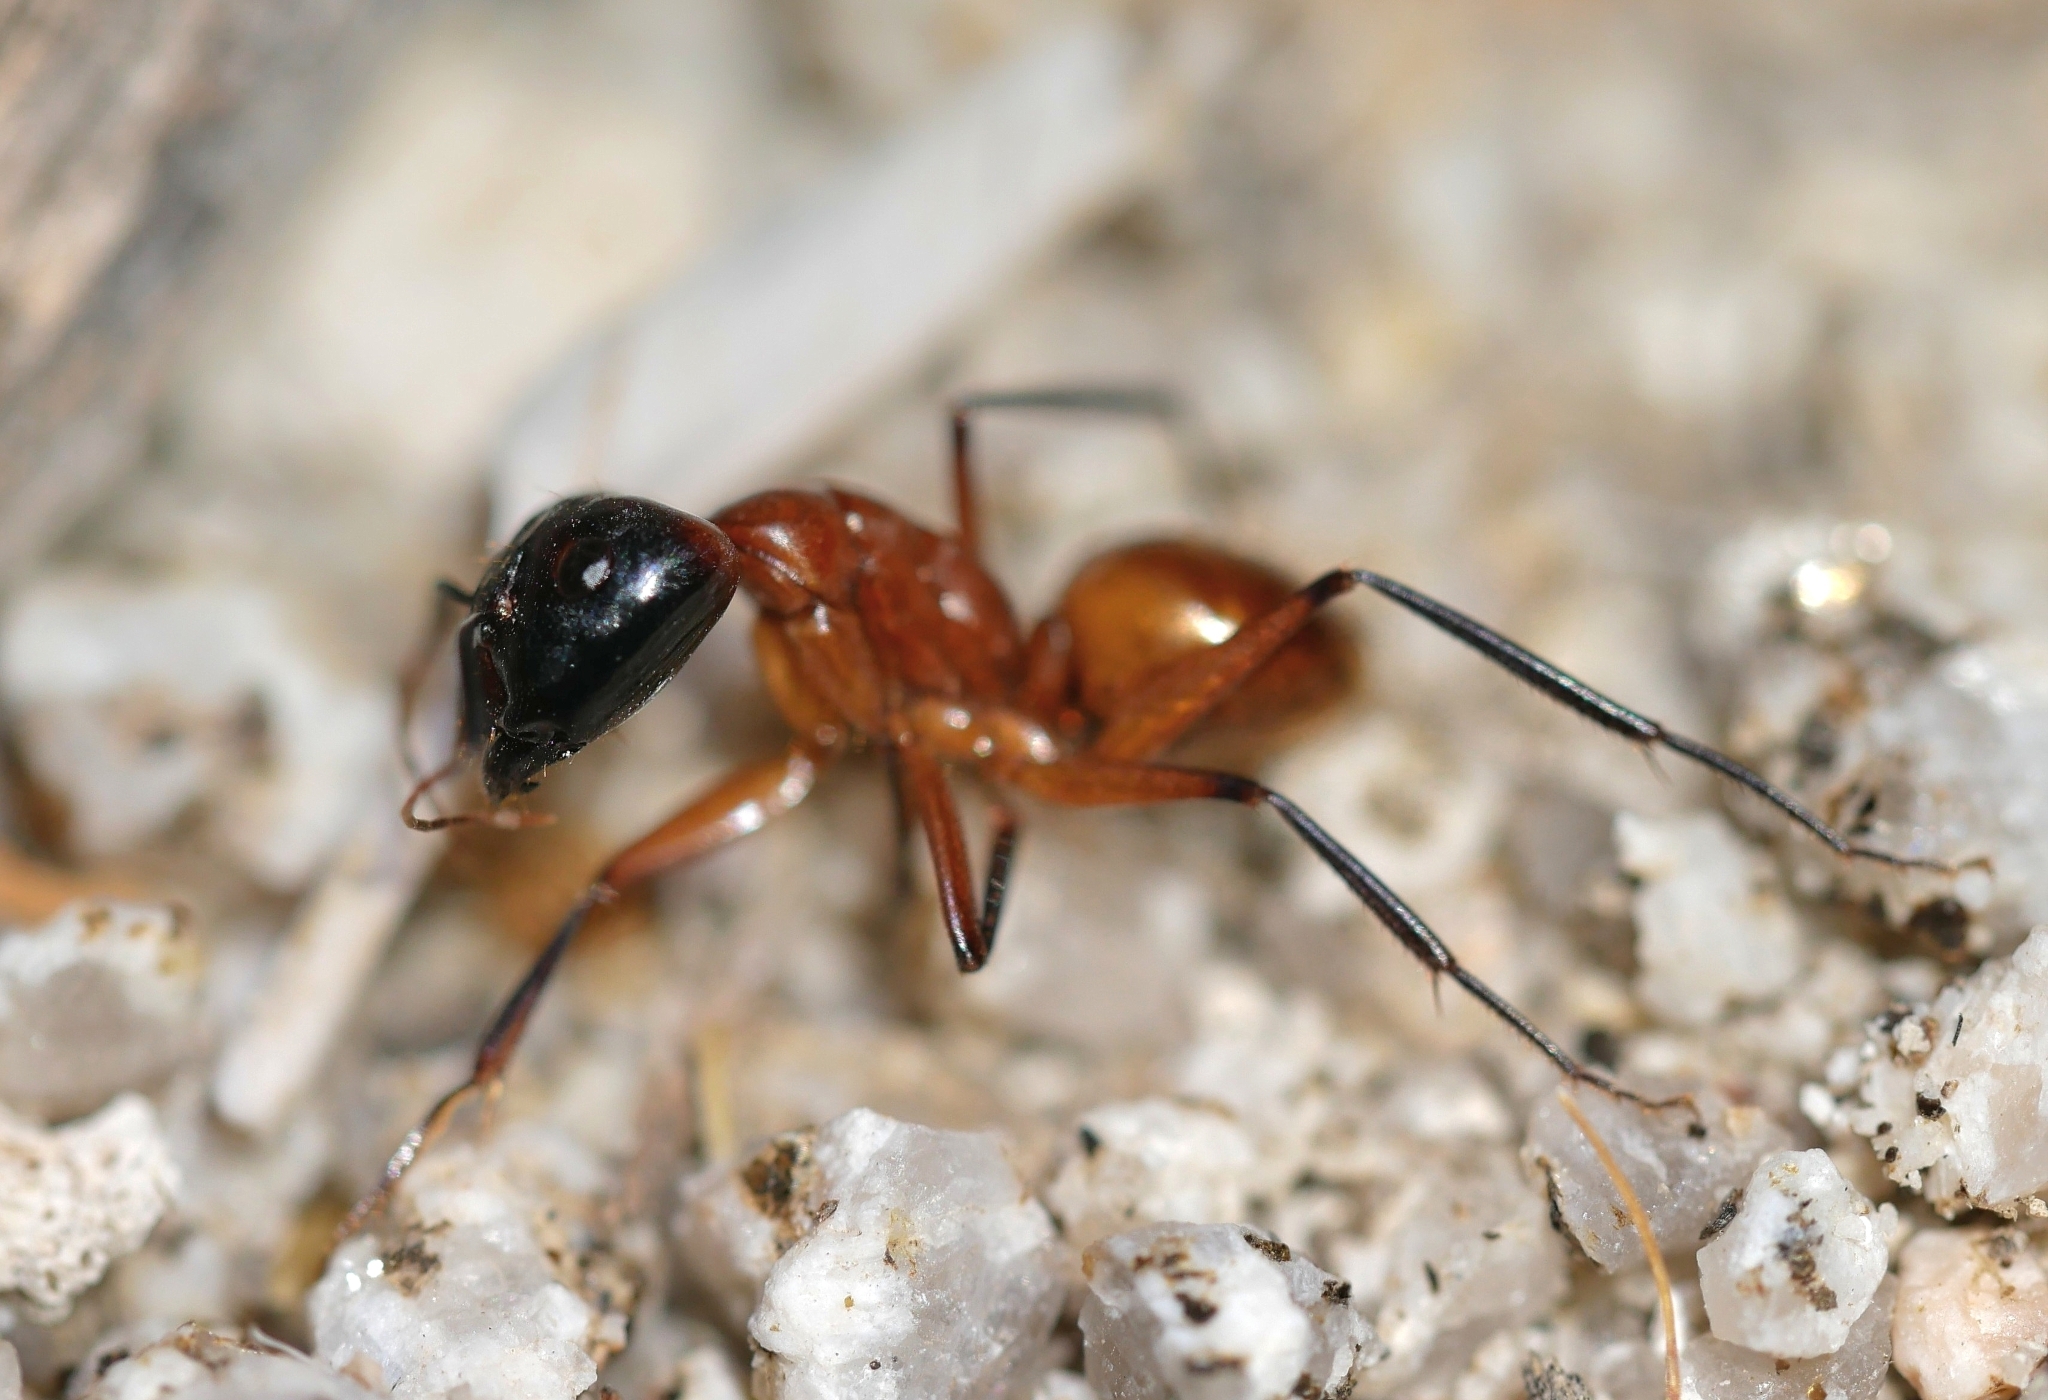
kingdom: Animalia
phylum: Arthropoda
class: Insecta
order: Hymenoptera
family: Formicidae
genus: Camponotus
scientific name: Camponotus ocreatus
